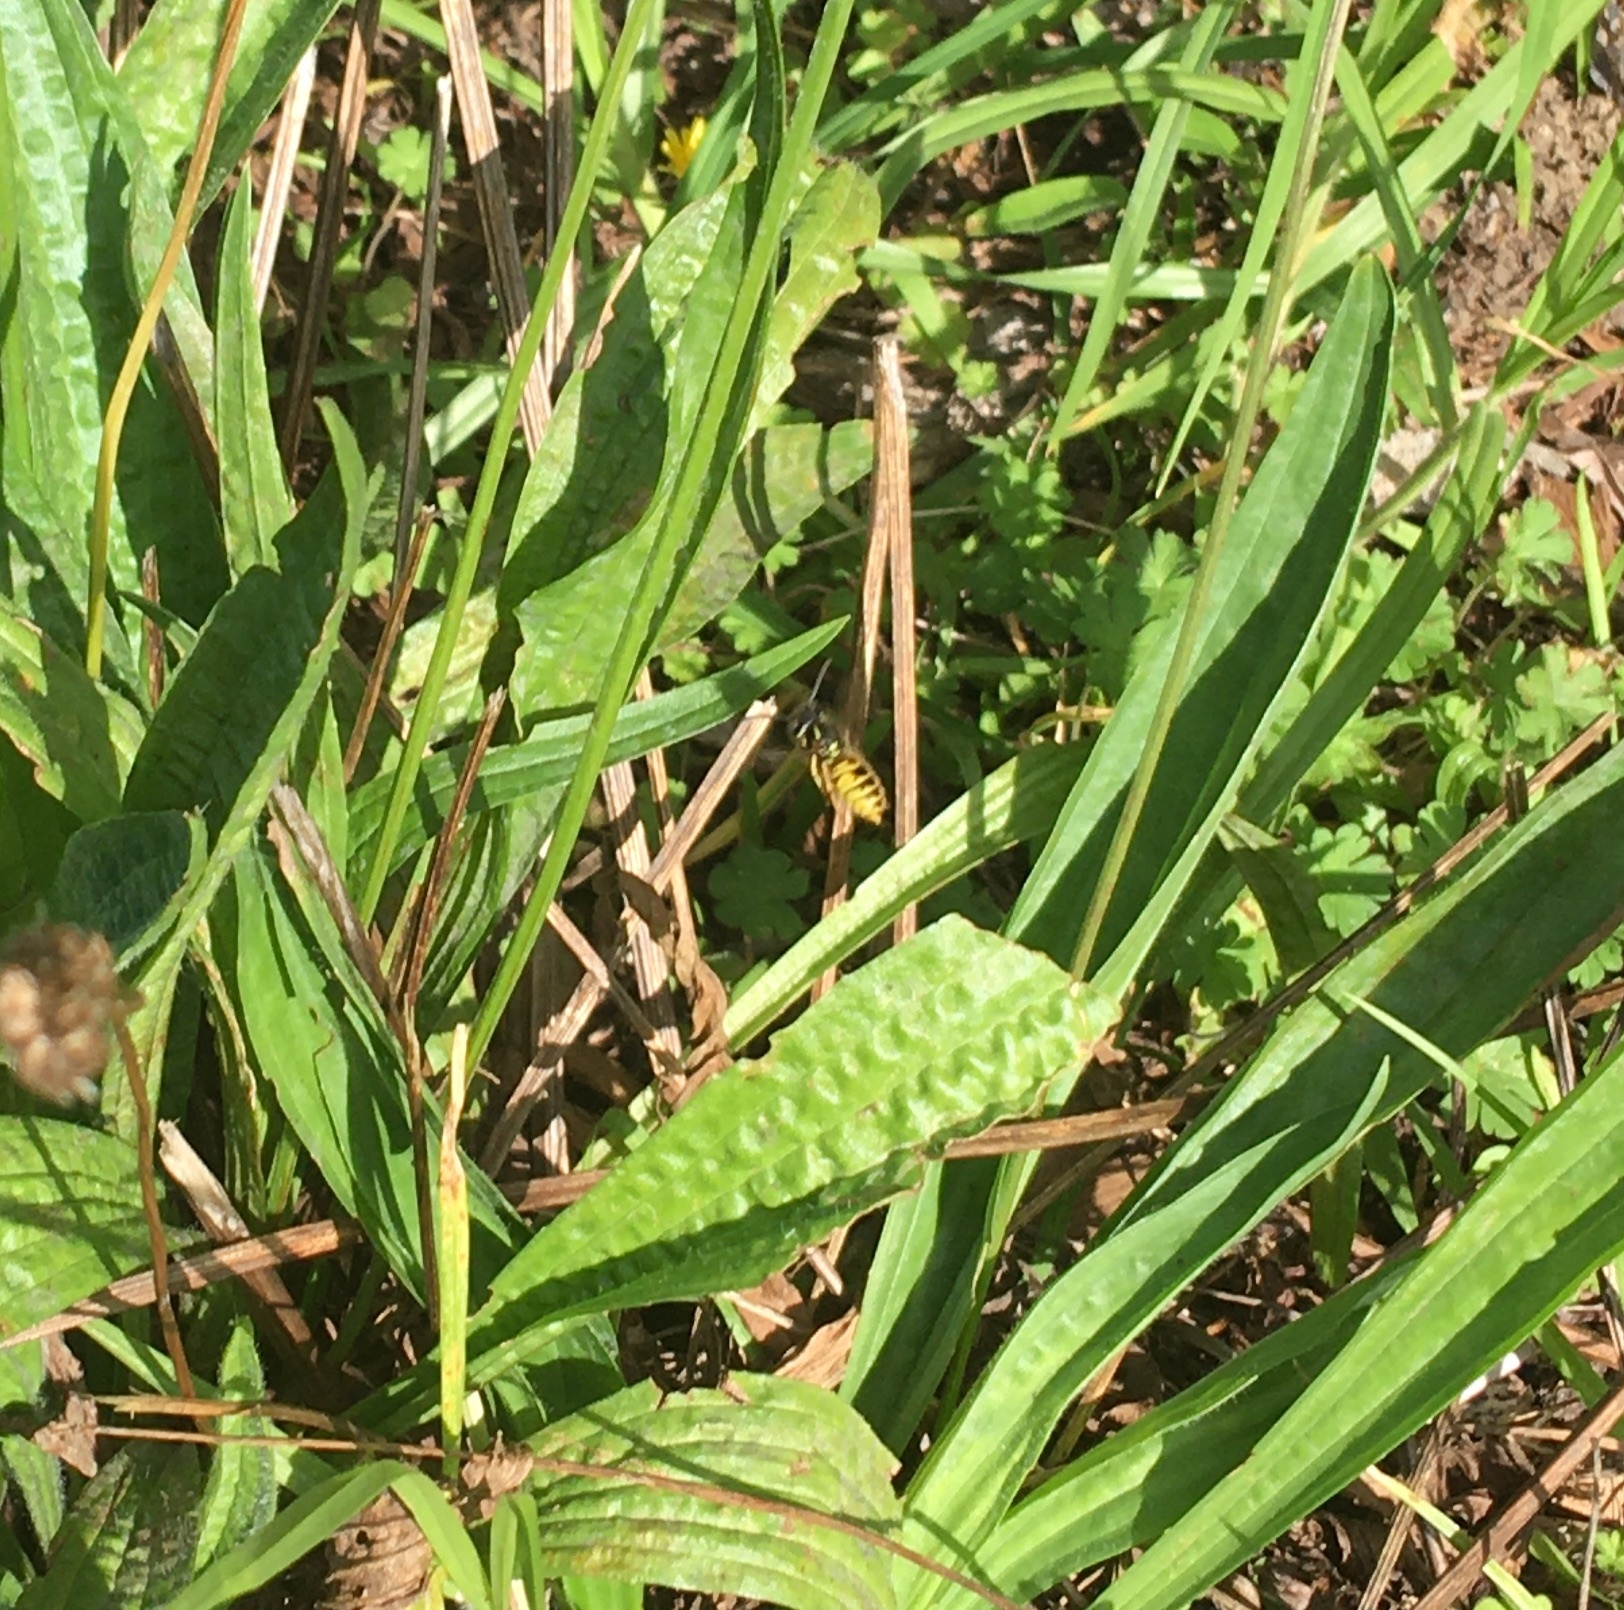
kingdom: Animalia
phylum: Arthropoda
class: Insecta
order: Hymenoptera
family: Vespidae
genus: Vespula
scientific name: Vespula
